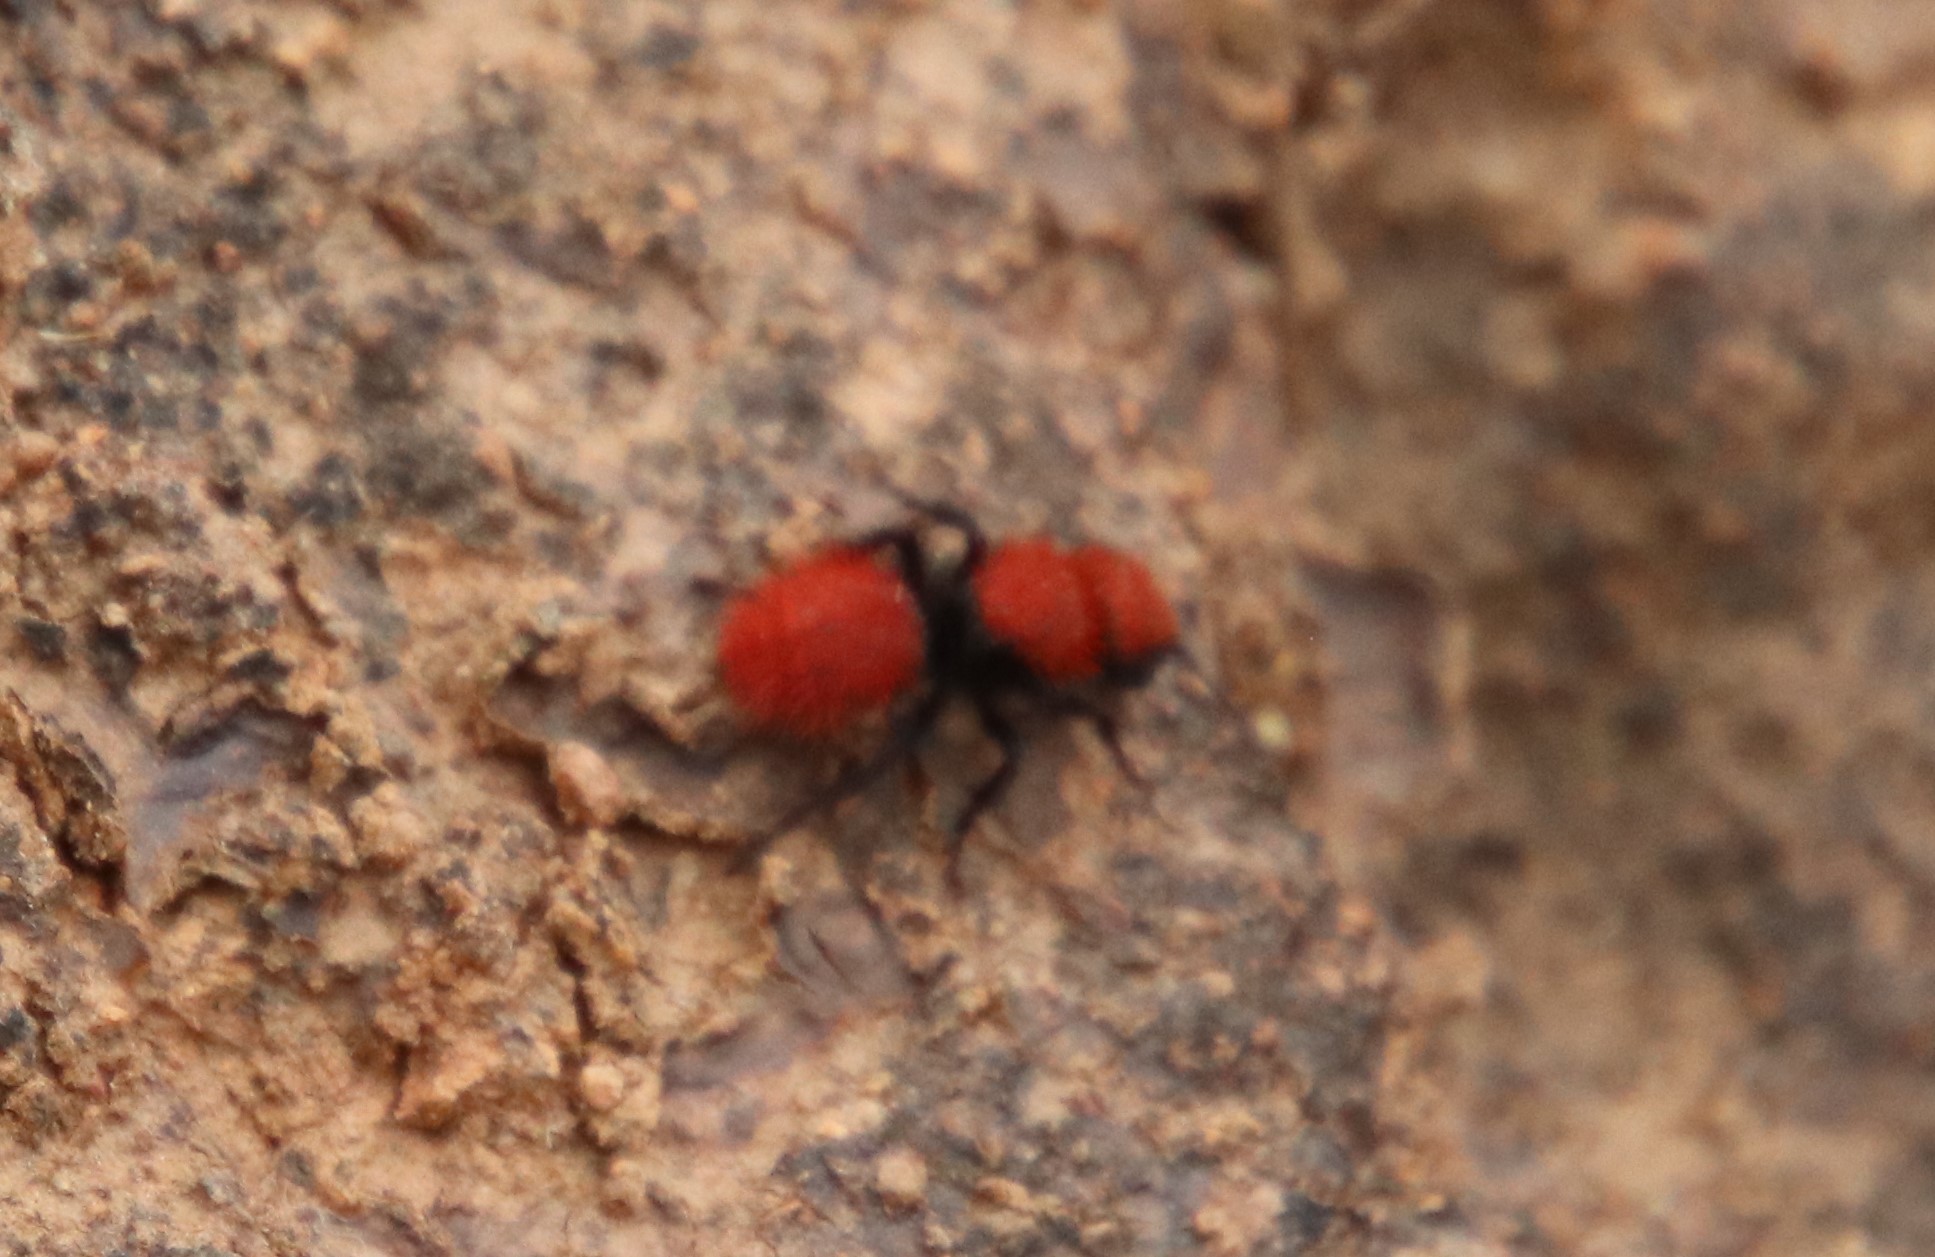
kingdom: Animalia
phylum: Arthropoda
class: Insecta
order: Hymenoptera
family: Mutillidae
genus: Dasymutilla
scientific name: Dasymutilla
